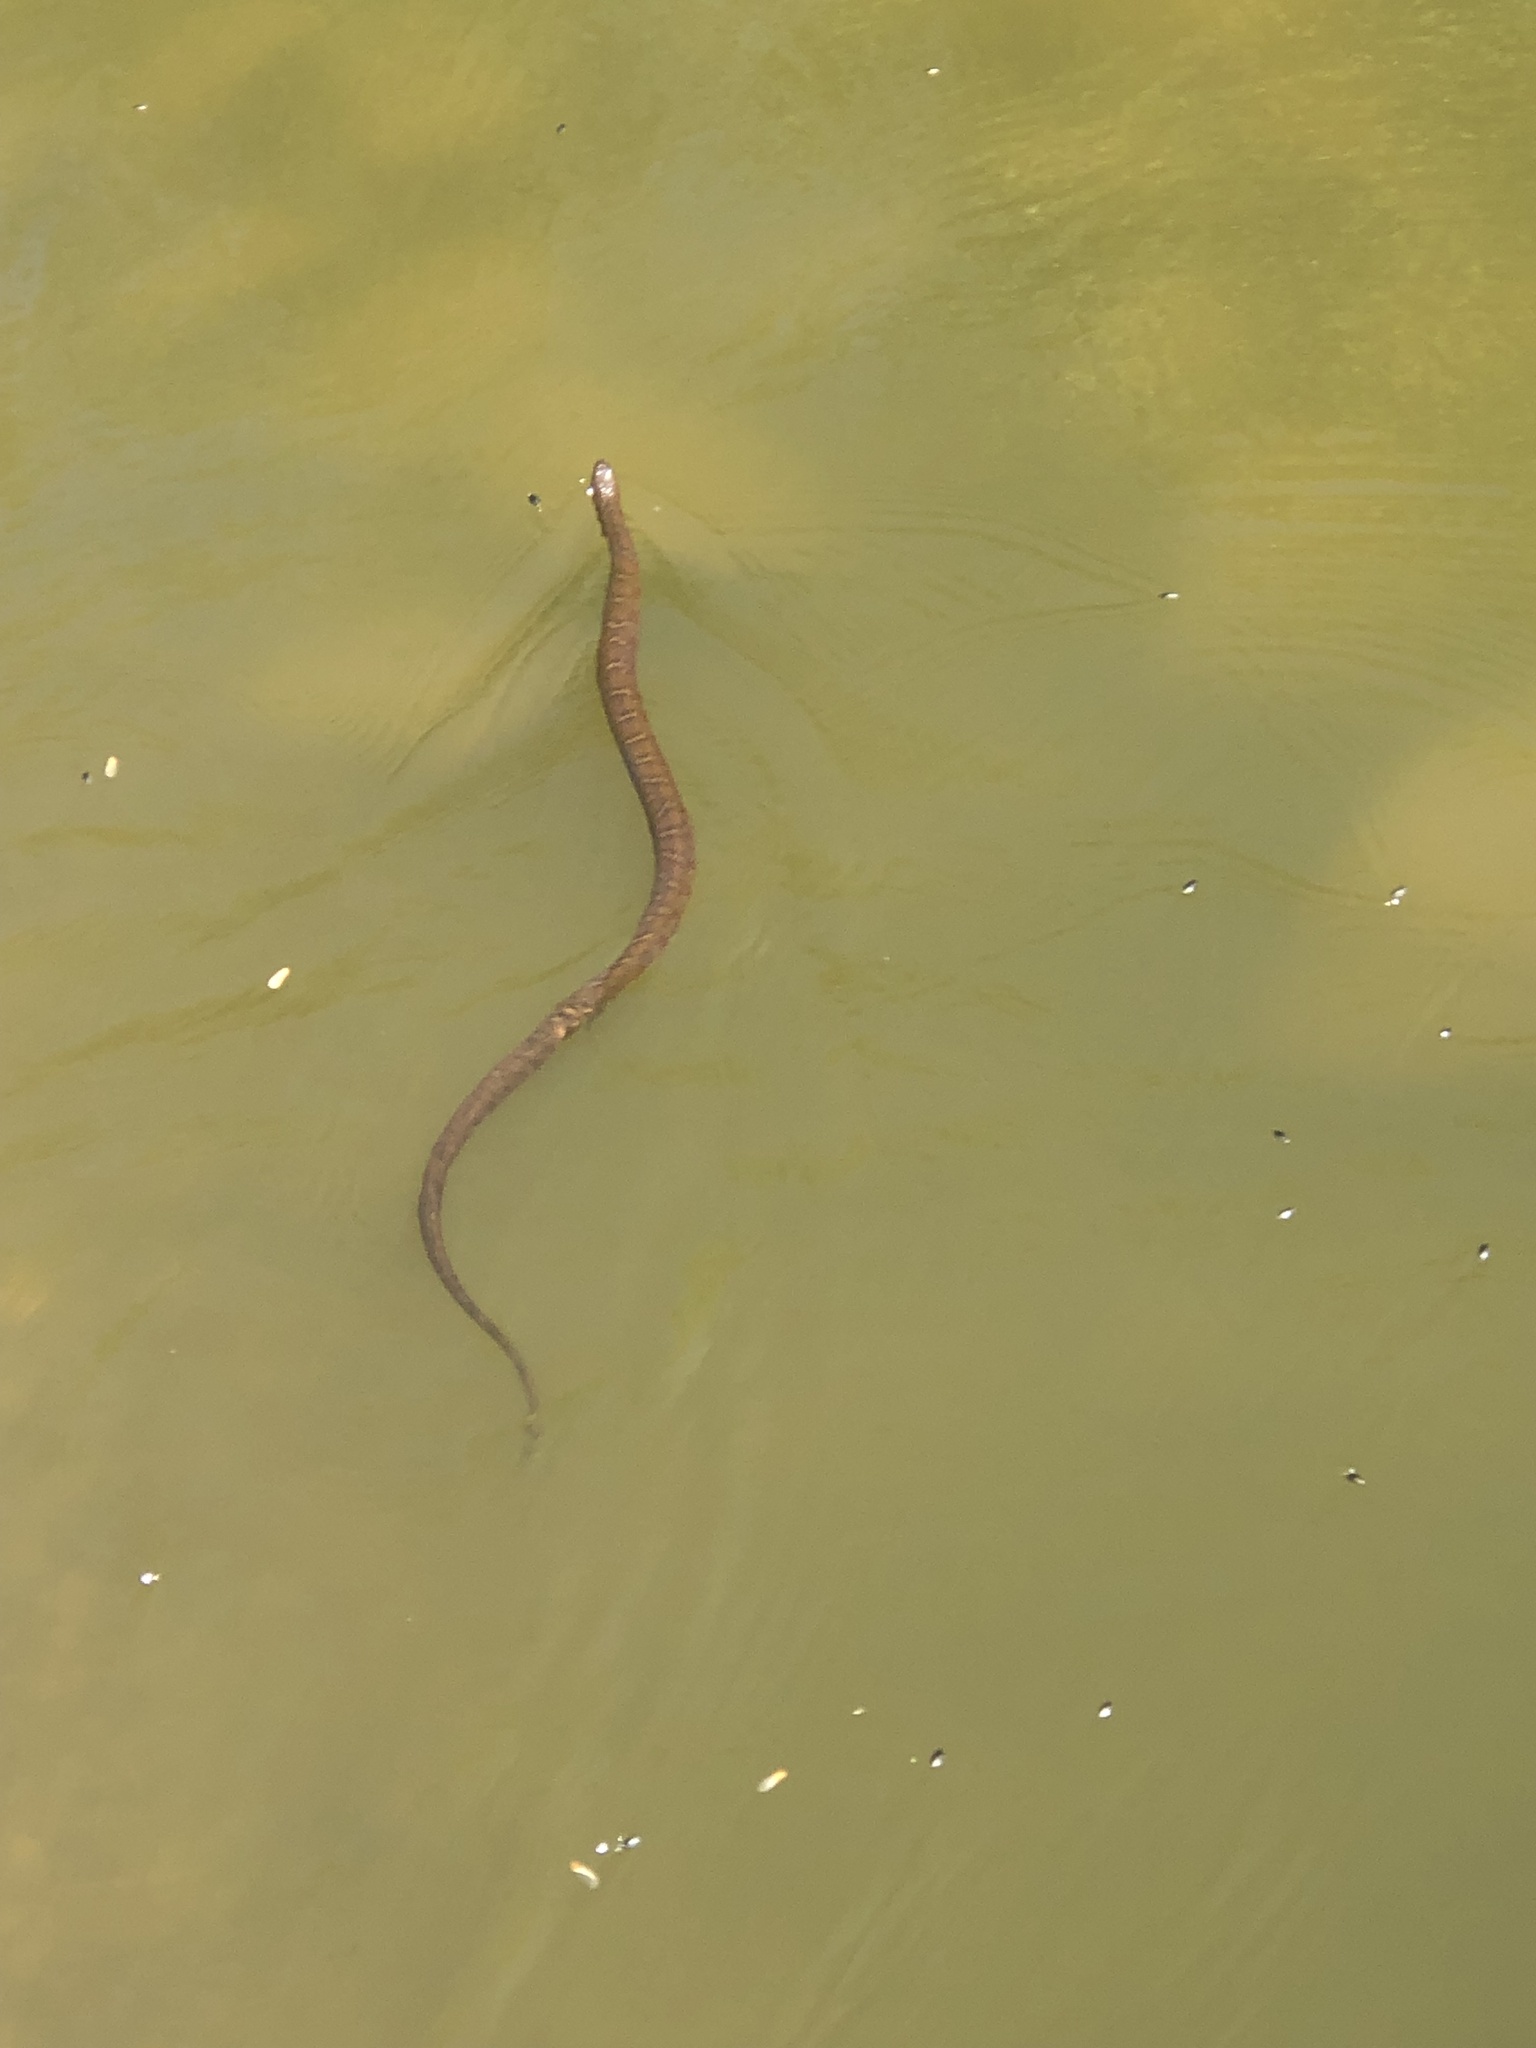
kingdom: Animalia
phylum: Chordata
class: Squamata
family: Colubridae
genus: Nerodia
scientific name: Nerodia sipedon
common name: Northern water snake
